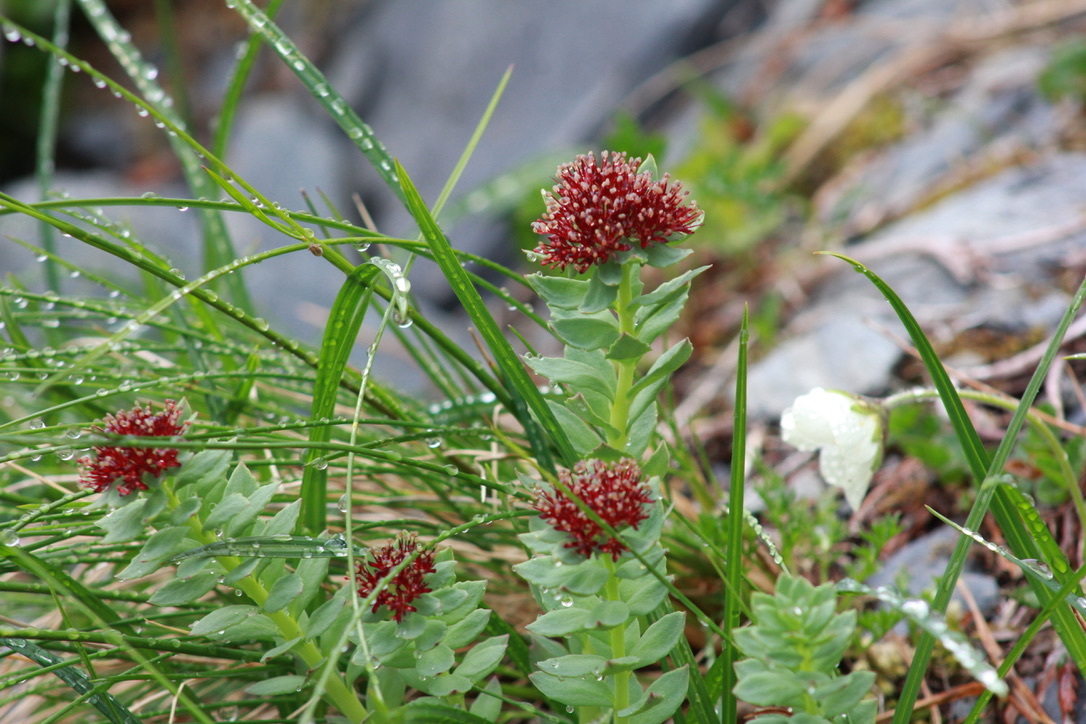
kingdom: Plantae
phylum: Tracheophyta
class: Magnoliopsida
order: Saxifragales
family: Crassulaceae
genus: Rhodiola
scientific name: Rhodiola integrifolia
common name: Western roseroot
